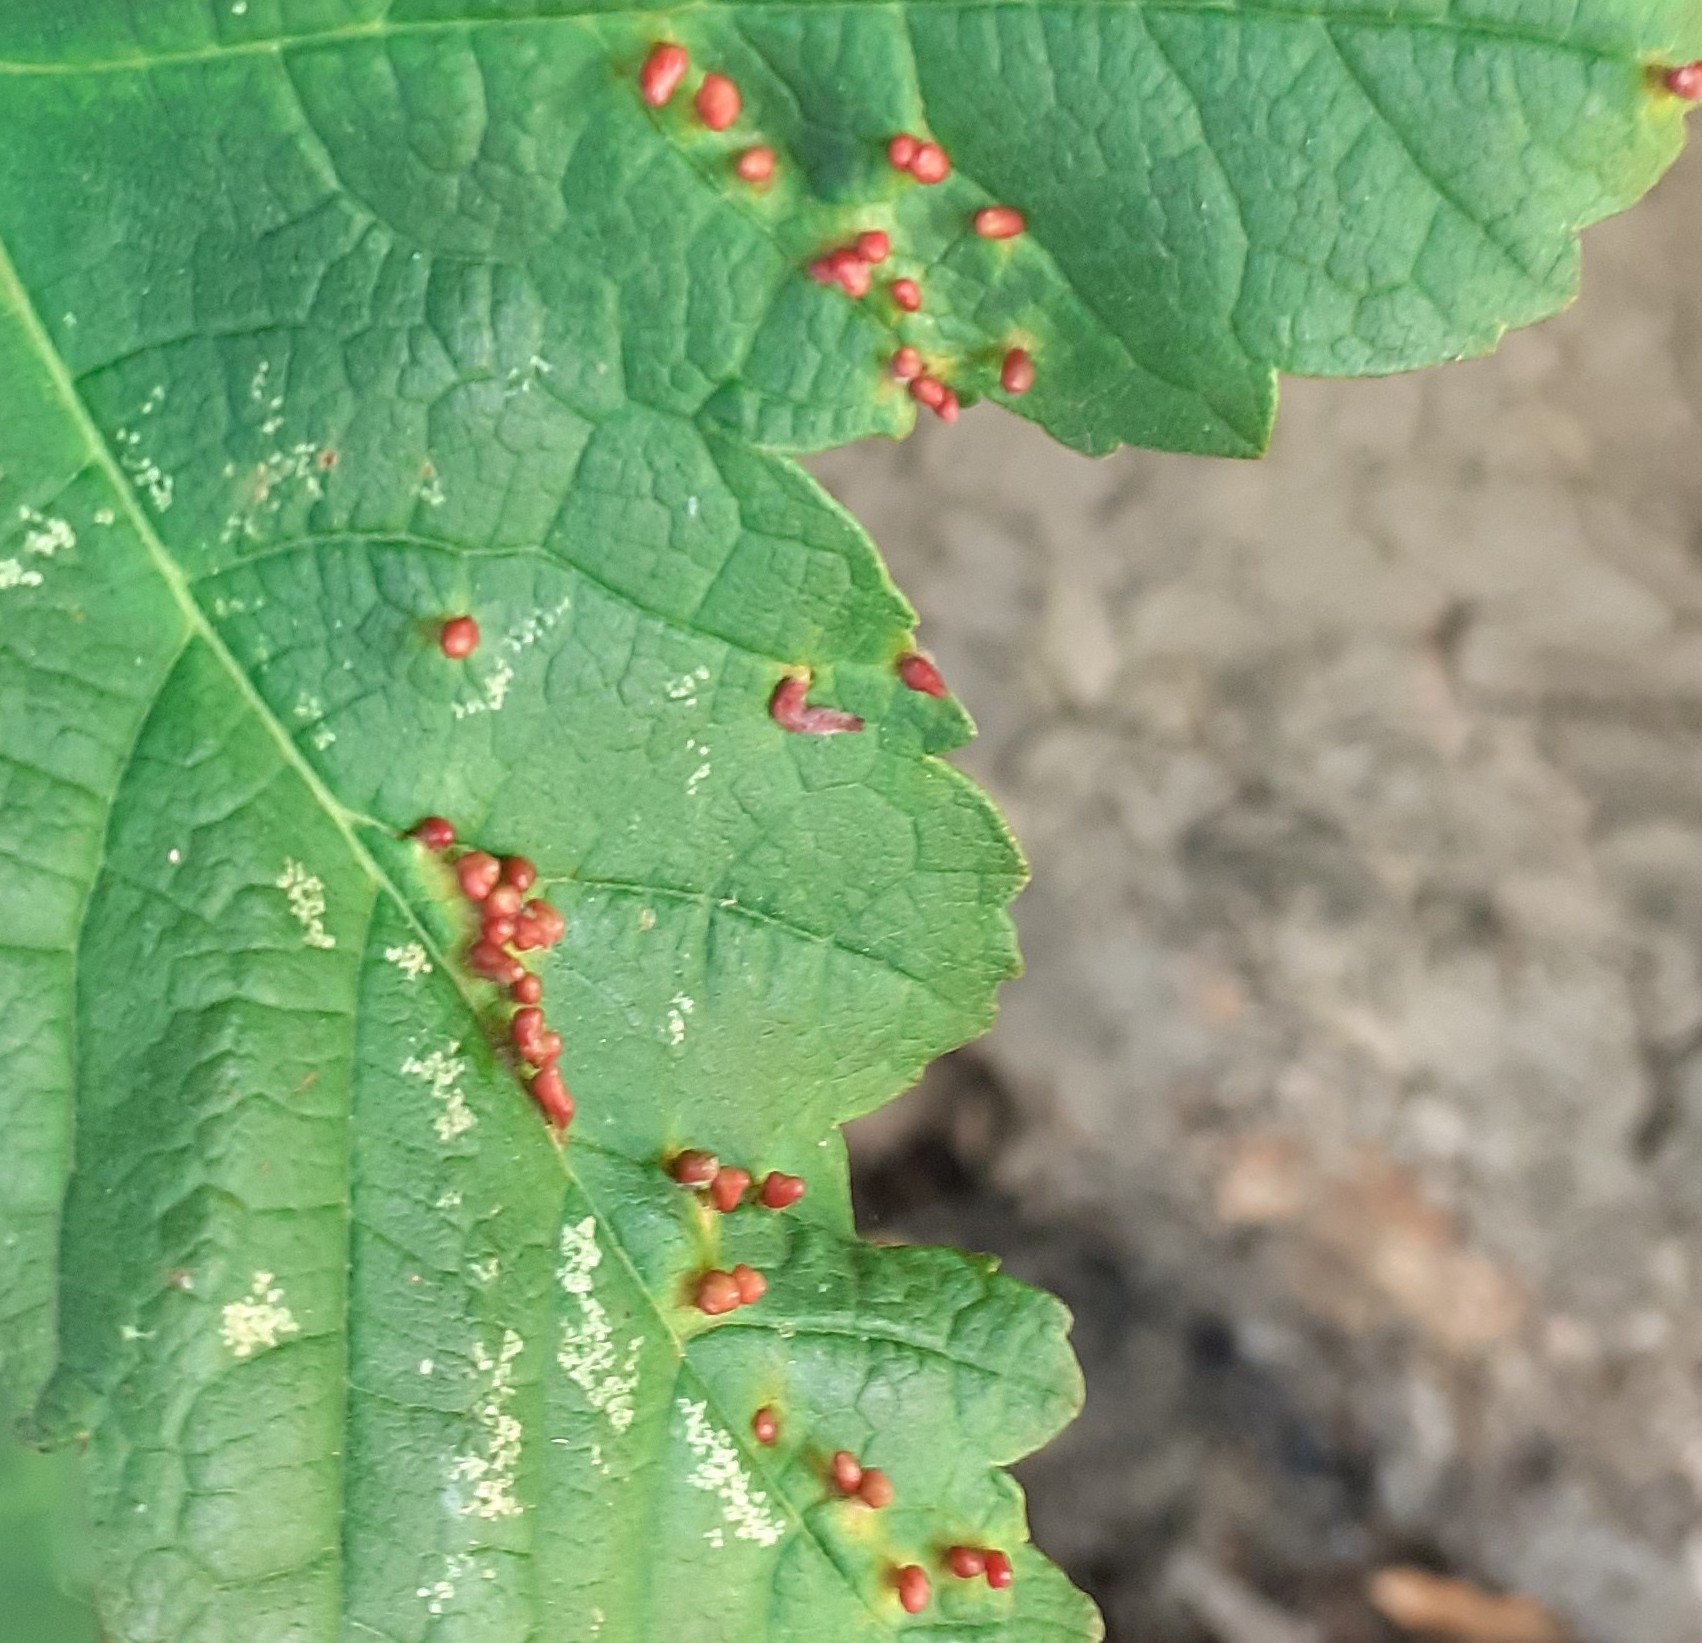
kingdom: Animalia
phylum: Arthropoda
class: Arachnida
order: Trombidiformes
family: Eriophyidae
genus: Aceria
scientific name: Aceria cephaloneus
